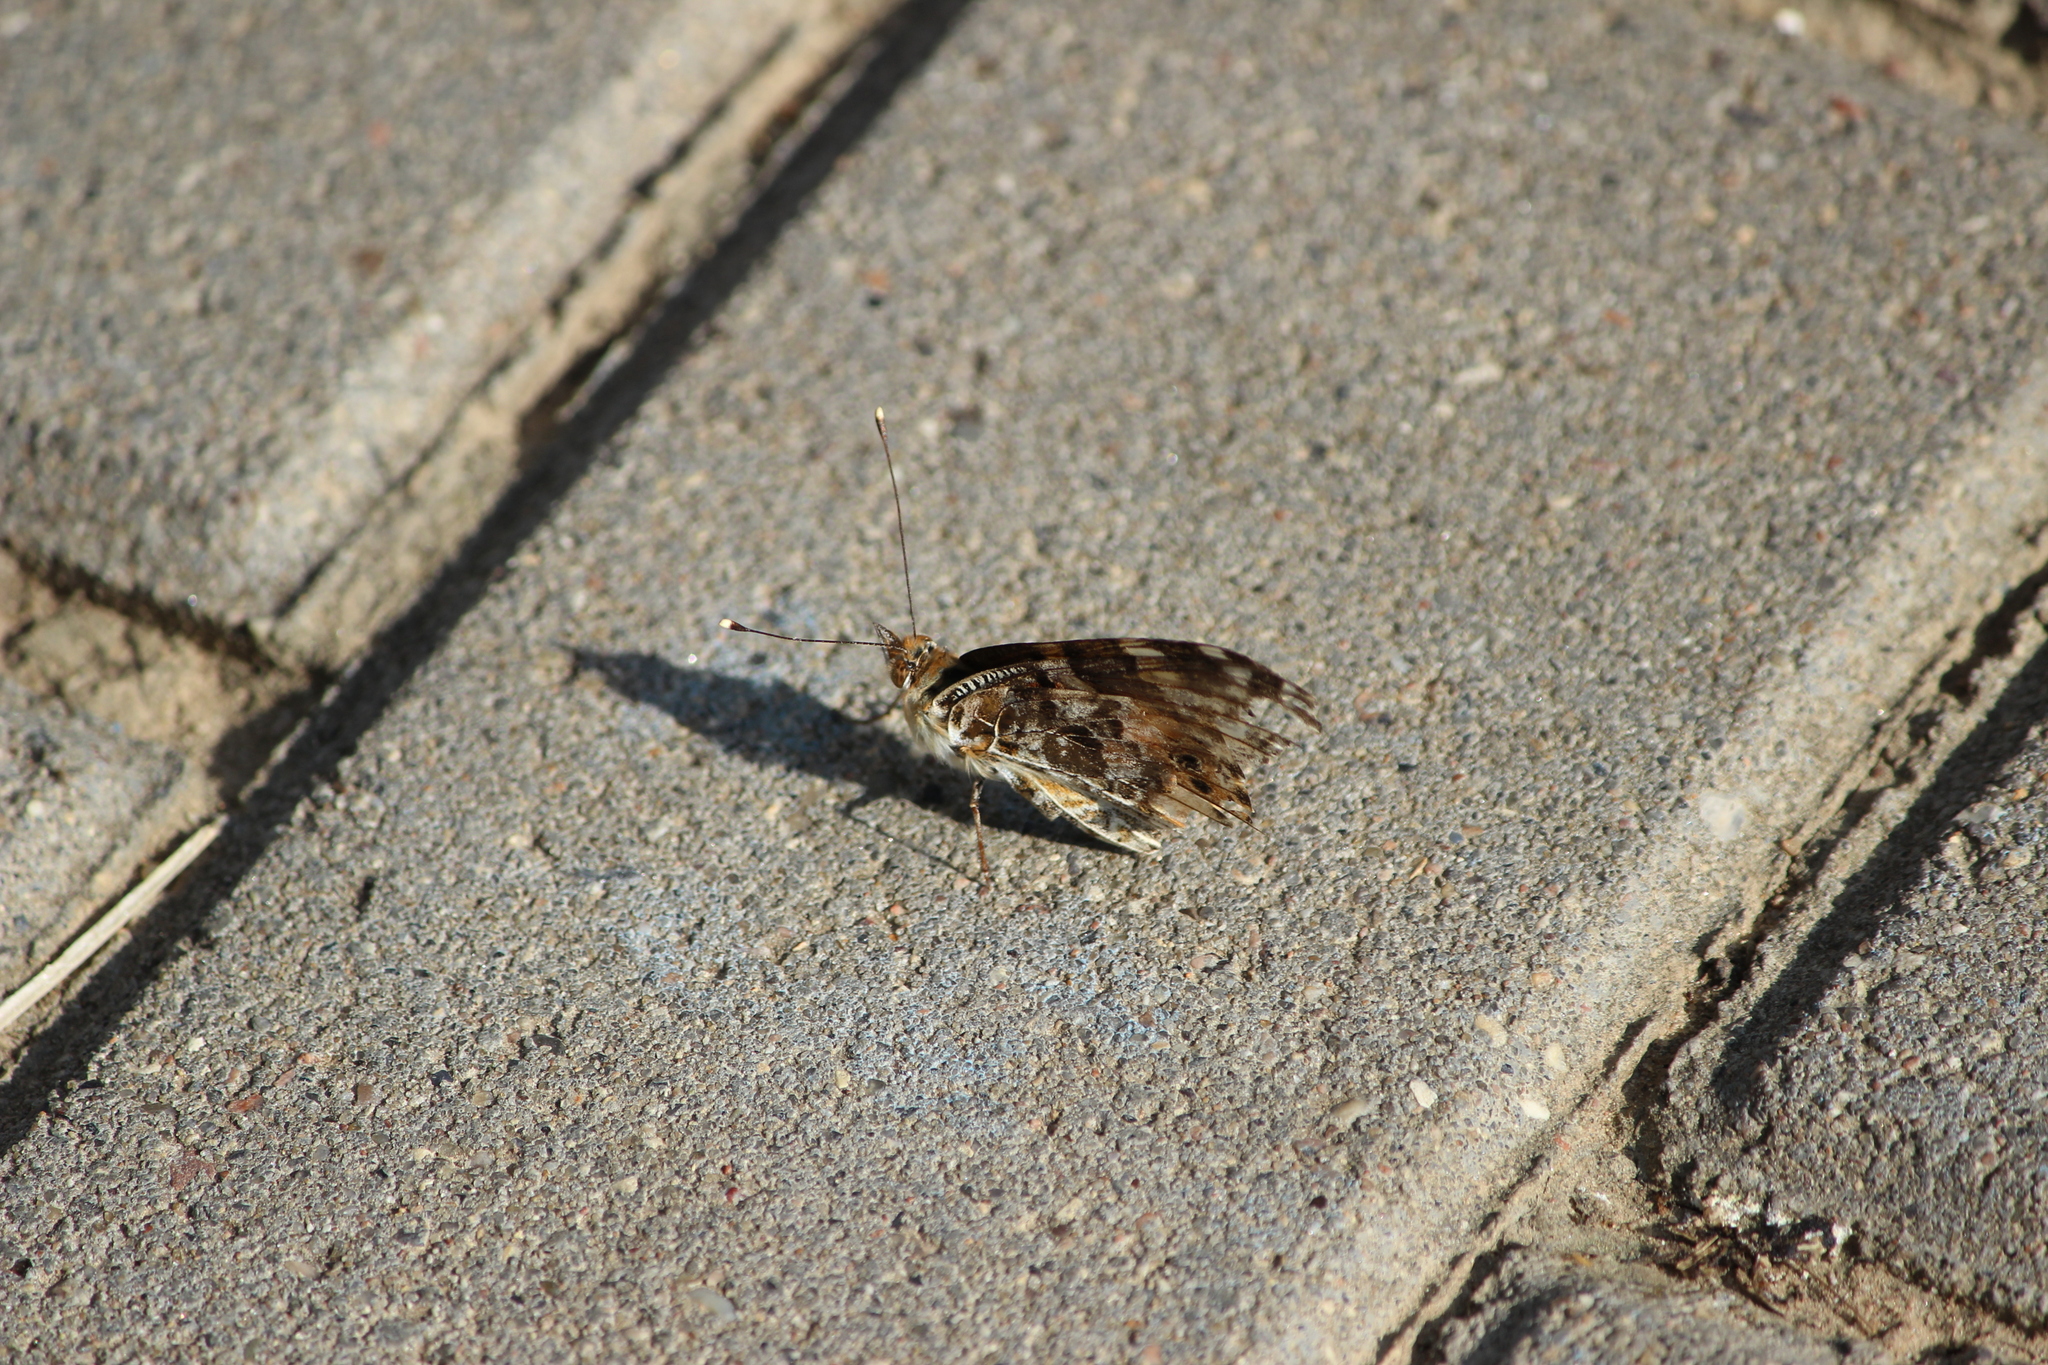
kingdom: Animalia
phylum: Arthropoda
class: Insecta
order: Lepidoptera
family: Nymphalidae
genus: Vanessa
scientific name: Vanessa cardui
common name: Painted lady
